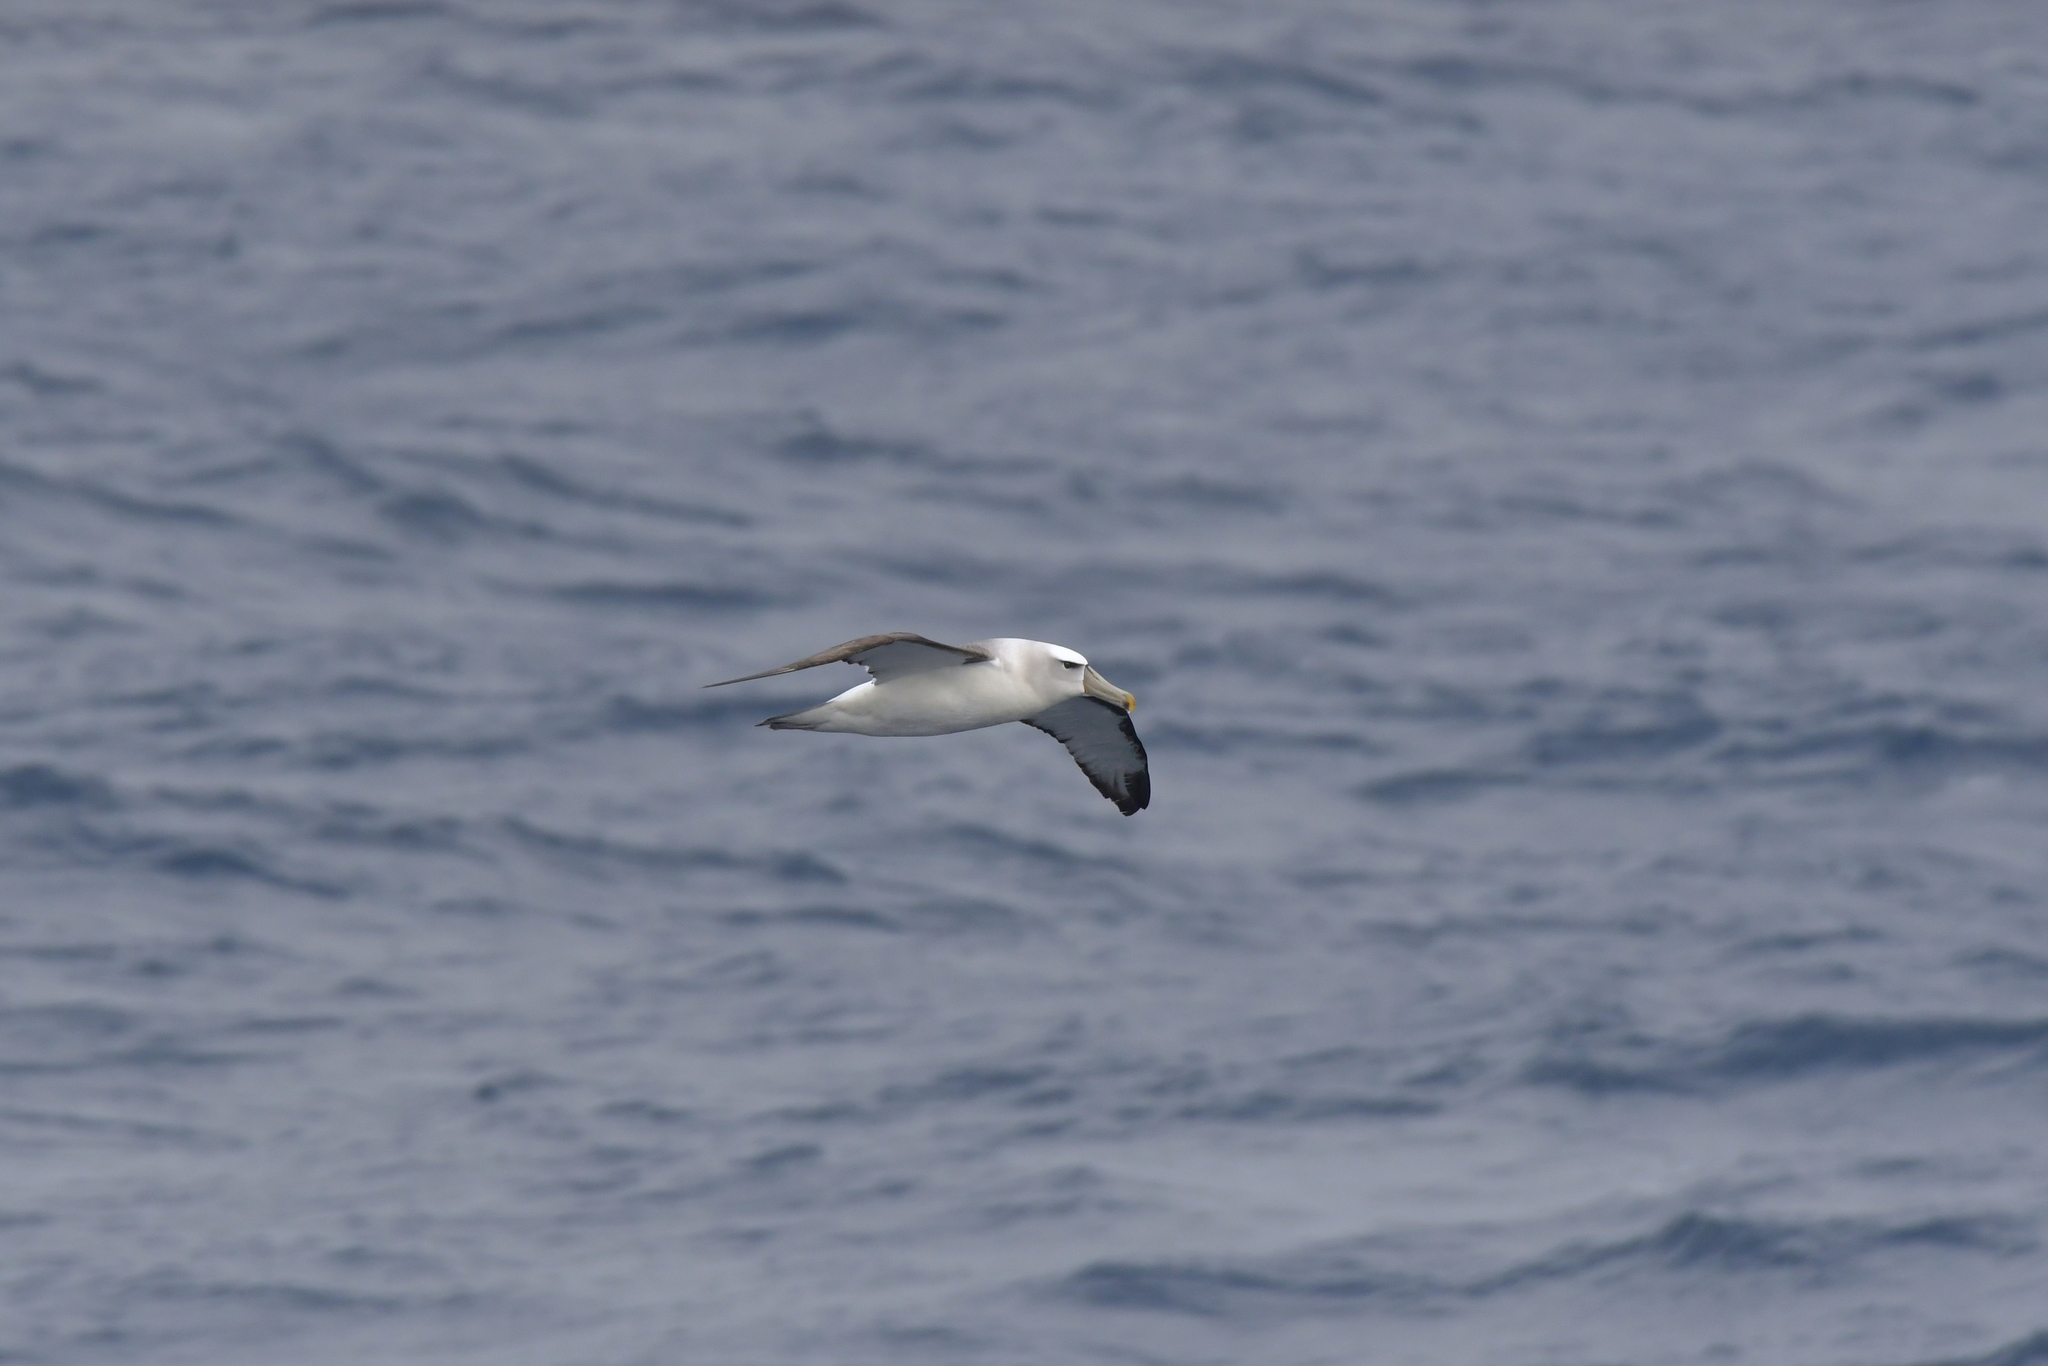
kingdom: Animalia
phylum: Chordata
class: Aves
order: Procellariiformes
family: Diomedeidae
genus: Thalassarche
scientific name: Thalassarche cauta
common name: Shy albatross
